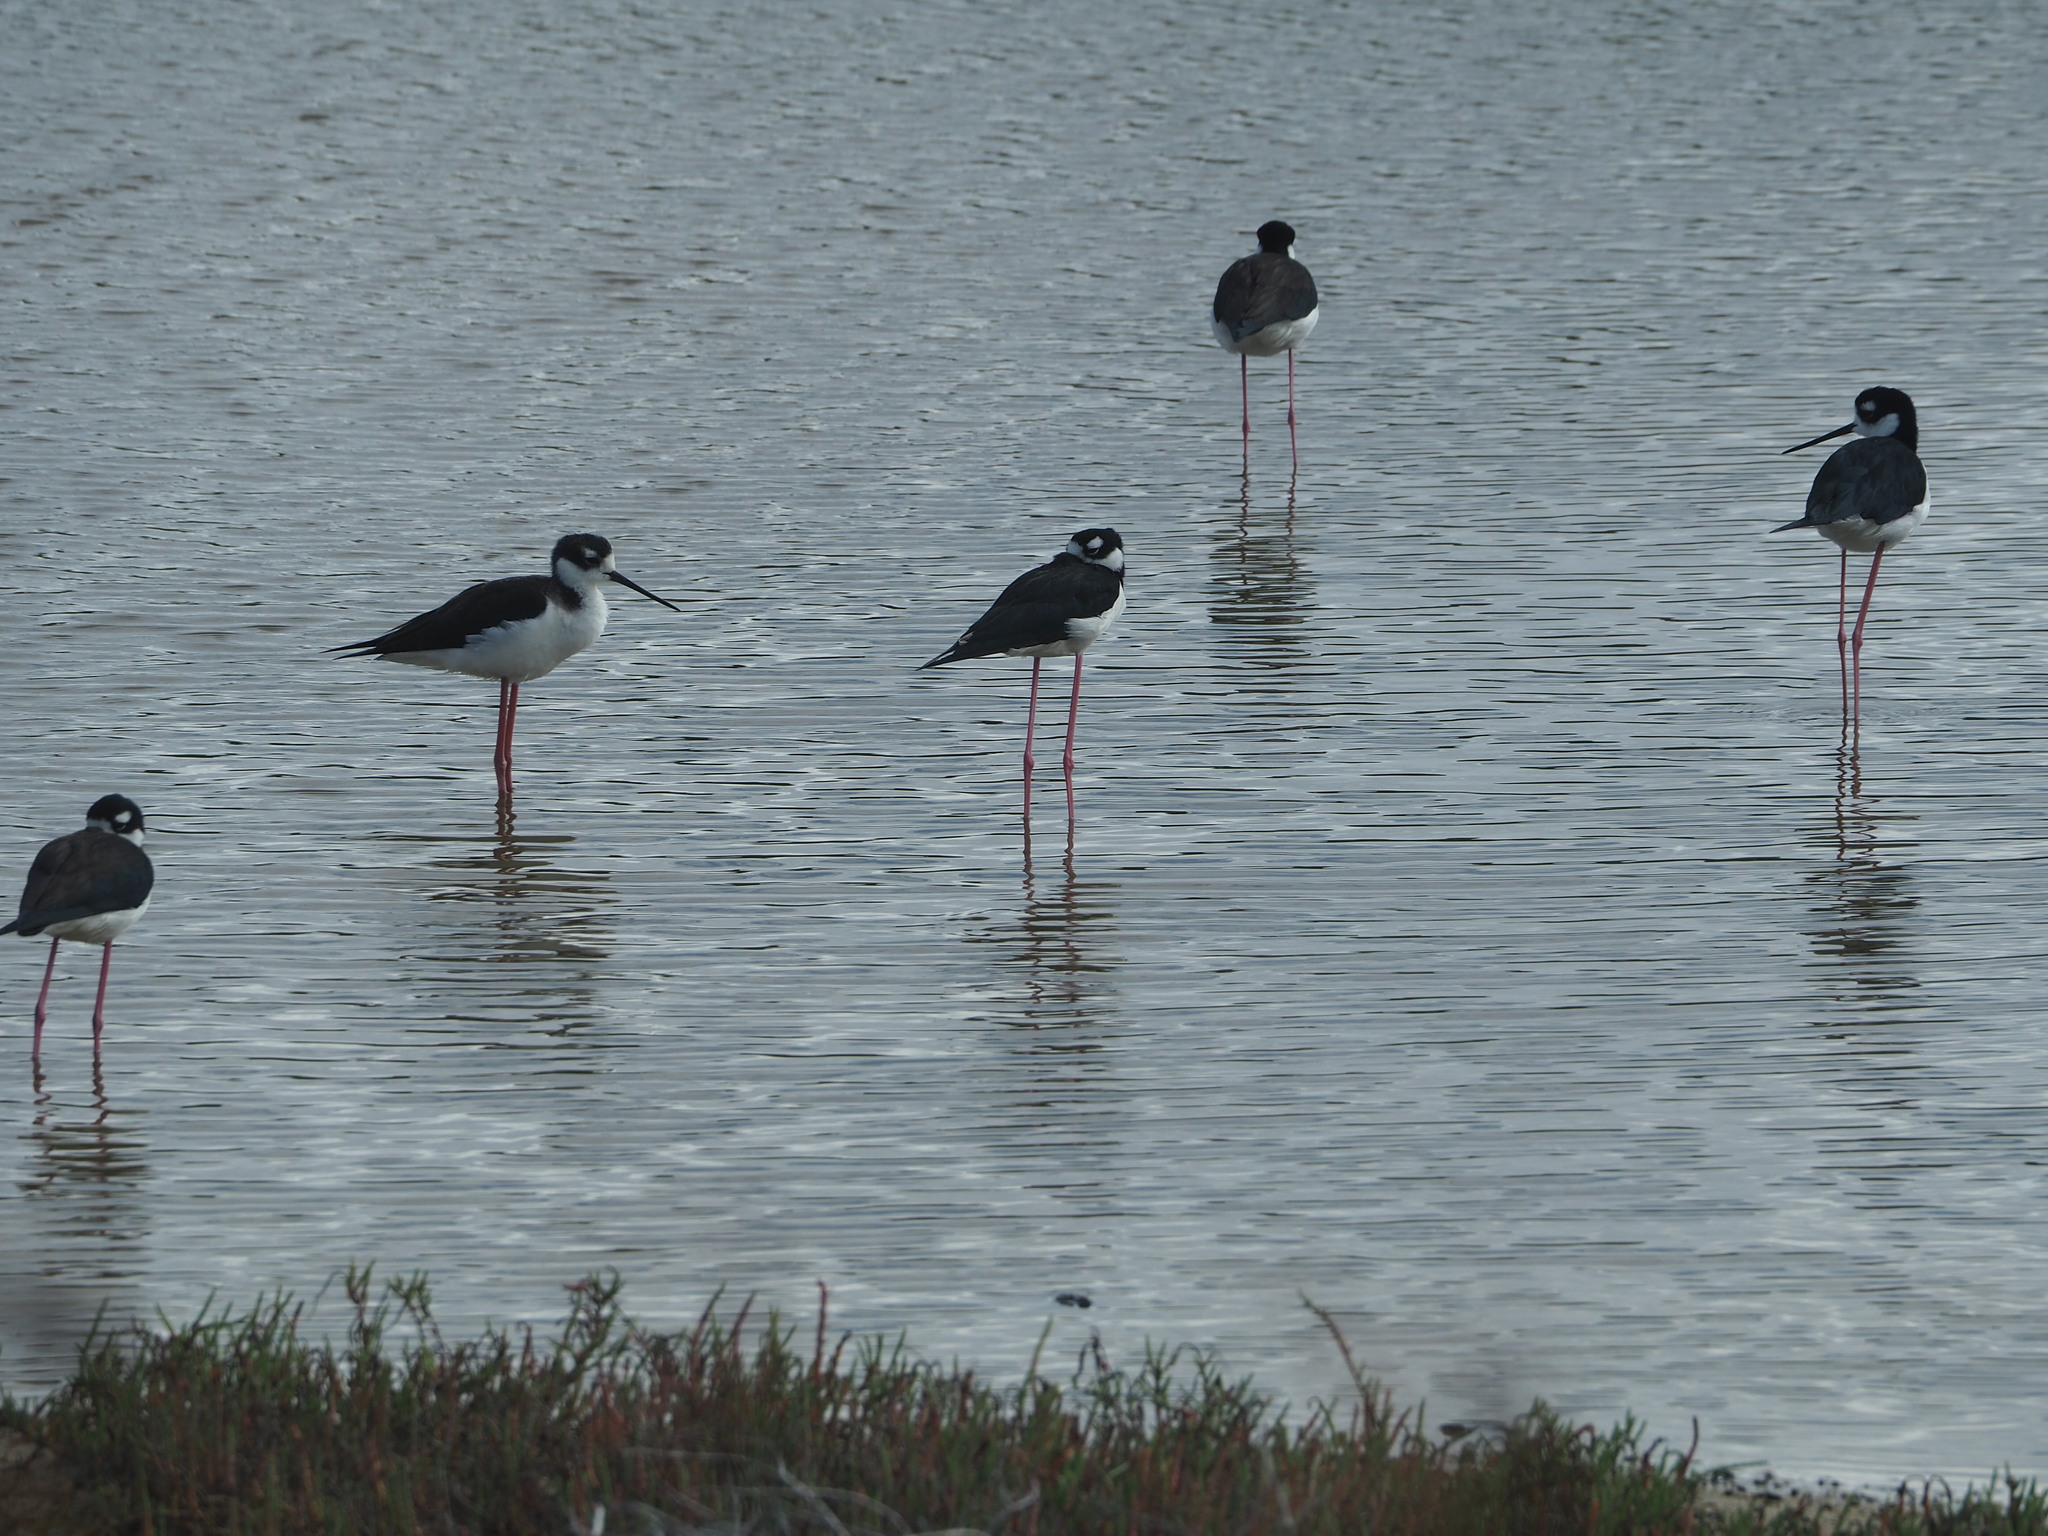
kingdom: Animalia
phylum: Chordata
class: Aves
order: Charadriiformes
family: Recurvirostridae
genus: Himantopus
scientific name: Himantopus mexicanus
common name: Black-necked stilt
